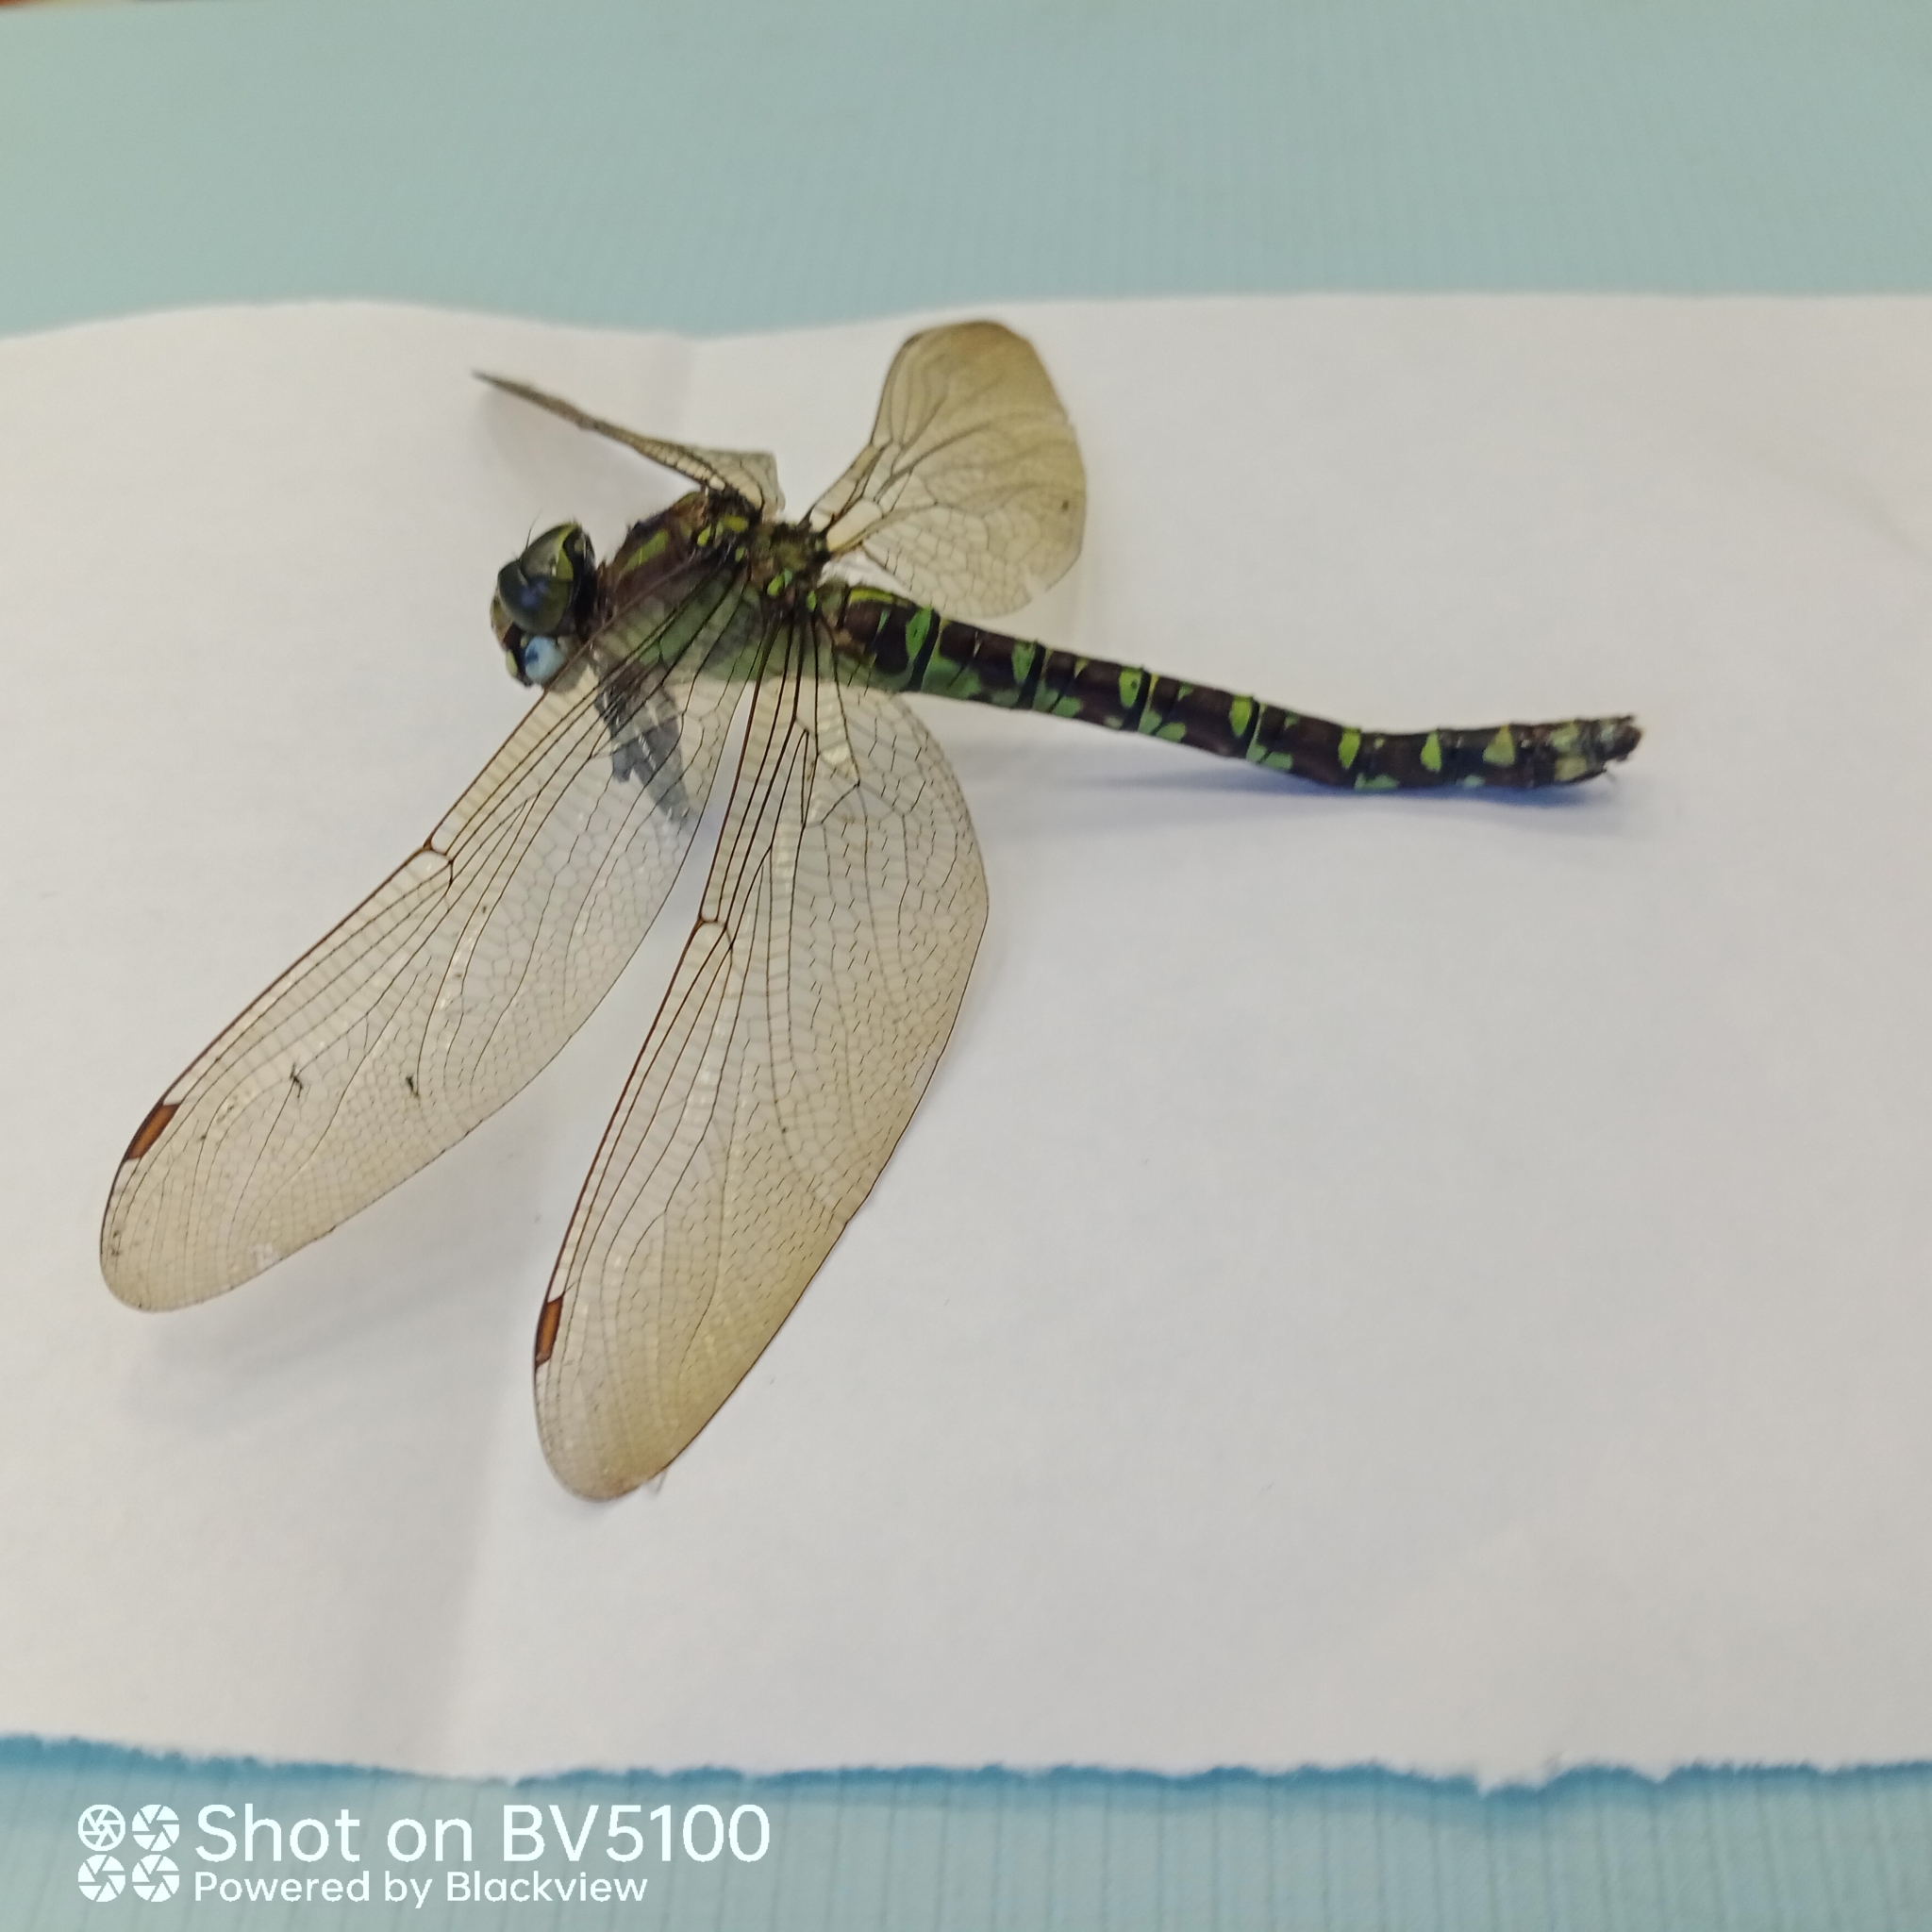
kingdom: Animalia
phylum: Arthropoda
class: Insecta
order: Odonata
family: Aeshnidae
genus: Aeshna
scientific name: Aeshna cyanea
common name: Southern hawker
